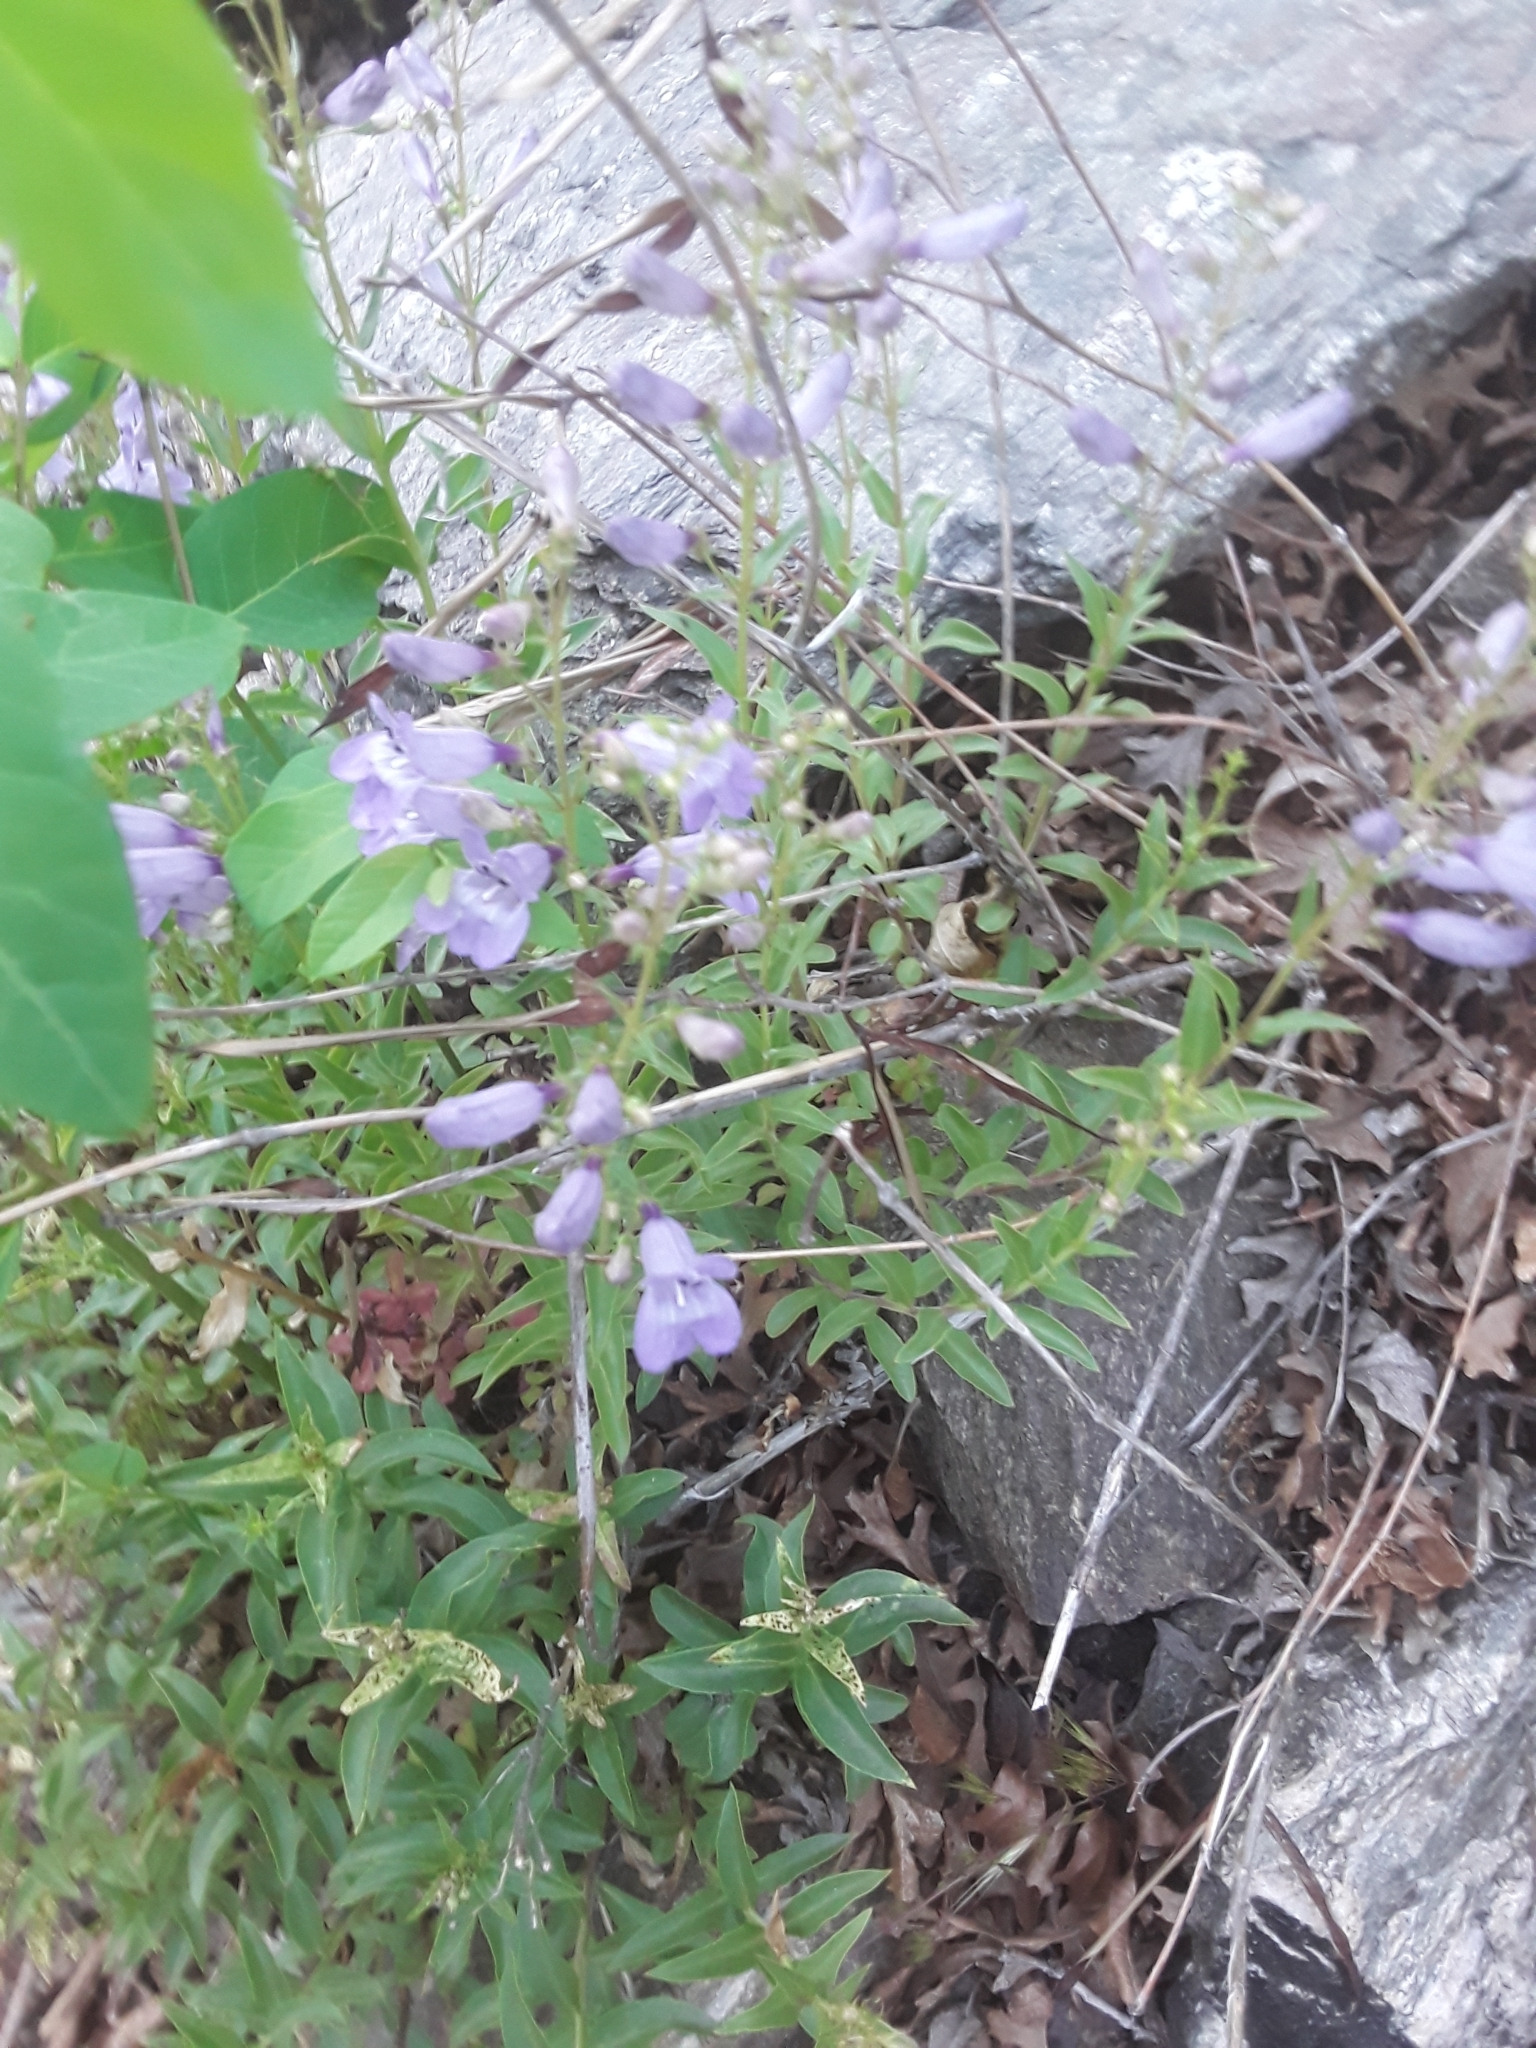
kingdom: Plantae
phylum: Tracheophyta
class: Magnoliopsida
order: Lamiales
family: Plantaginaceae
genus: Penstemon
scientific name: Penstemon platyphyllus
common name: Broadleaf penstemon
